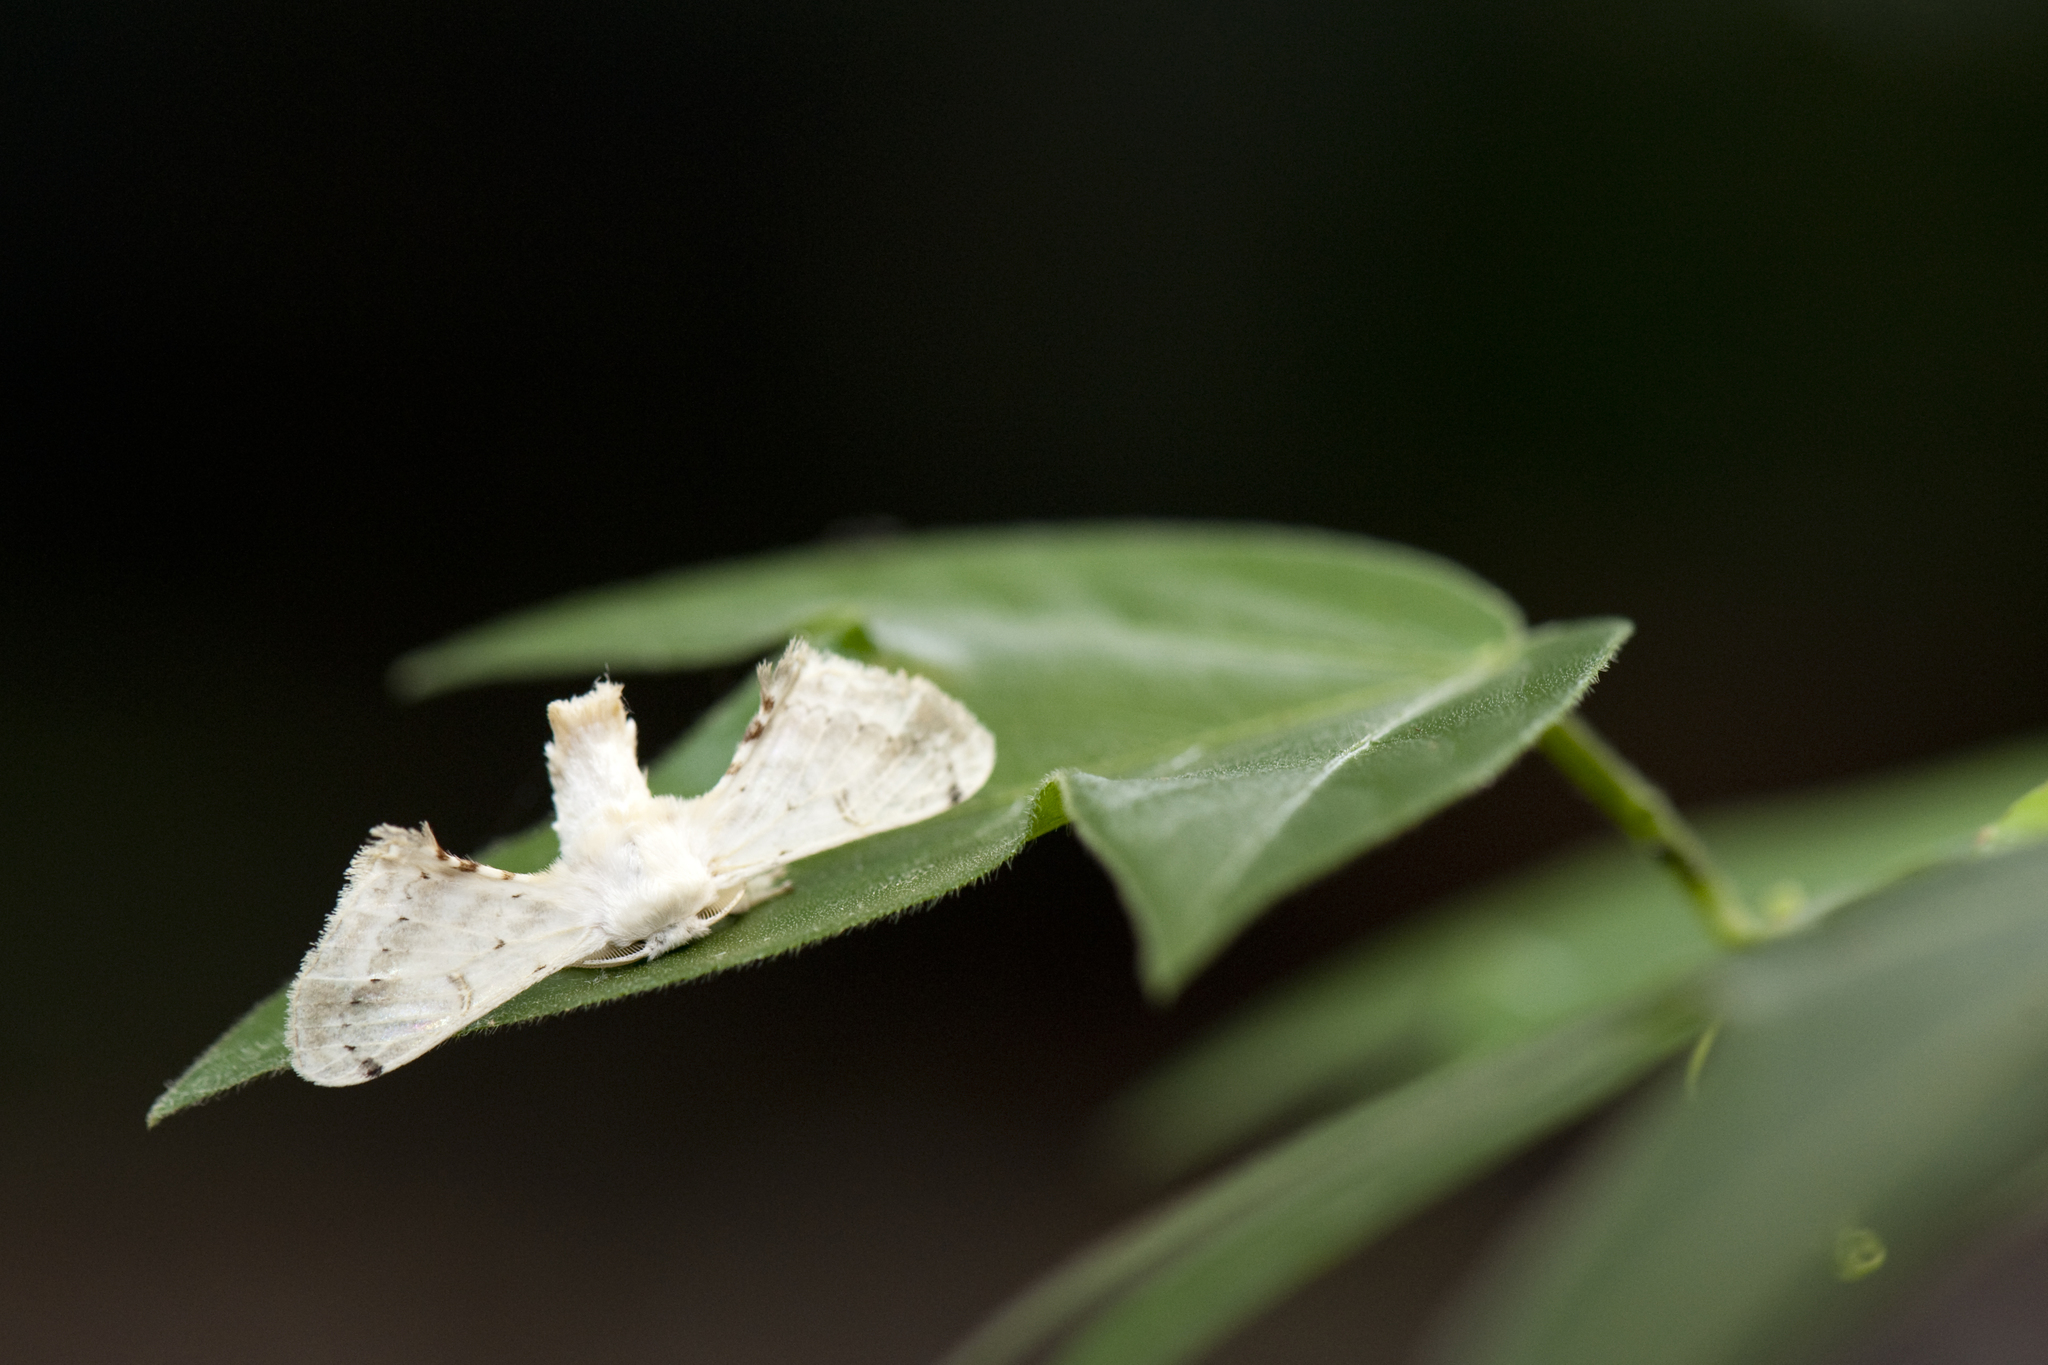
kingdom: Animalia
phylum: Arthropoda
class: Insecta
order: Lepidoptera
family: Bombycidae
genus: Ernolatia
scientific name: Ernolatia moorei
